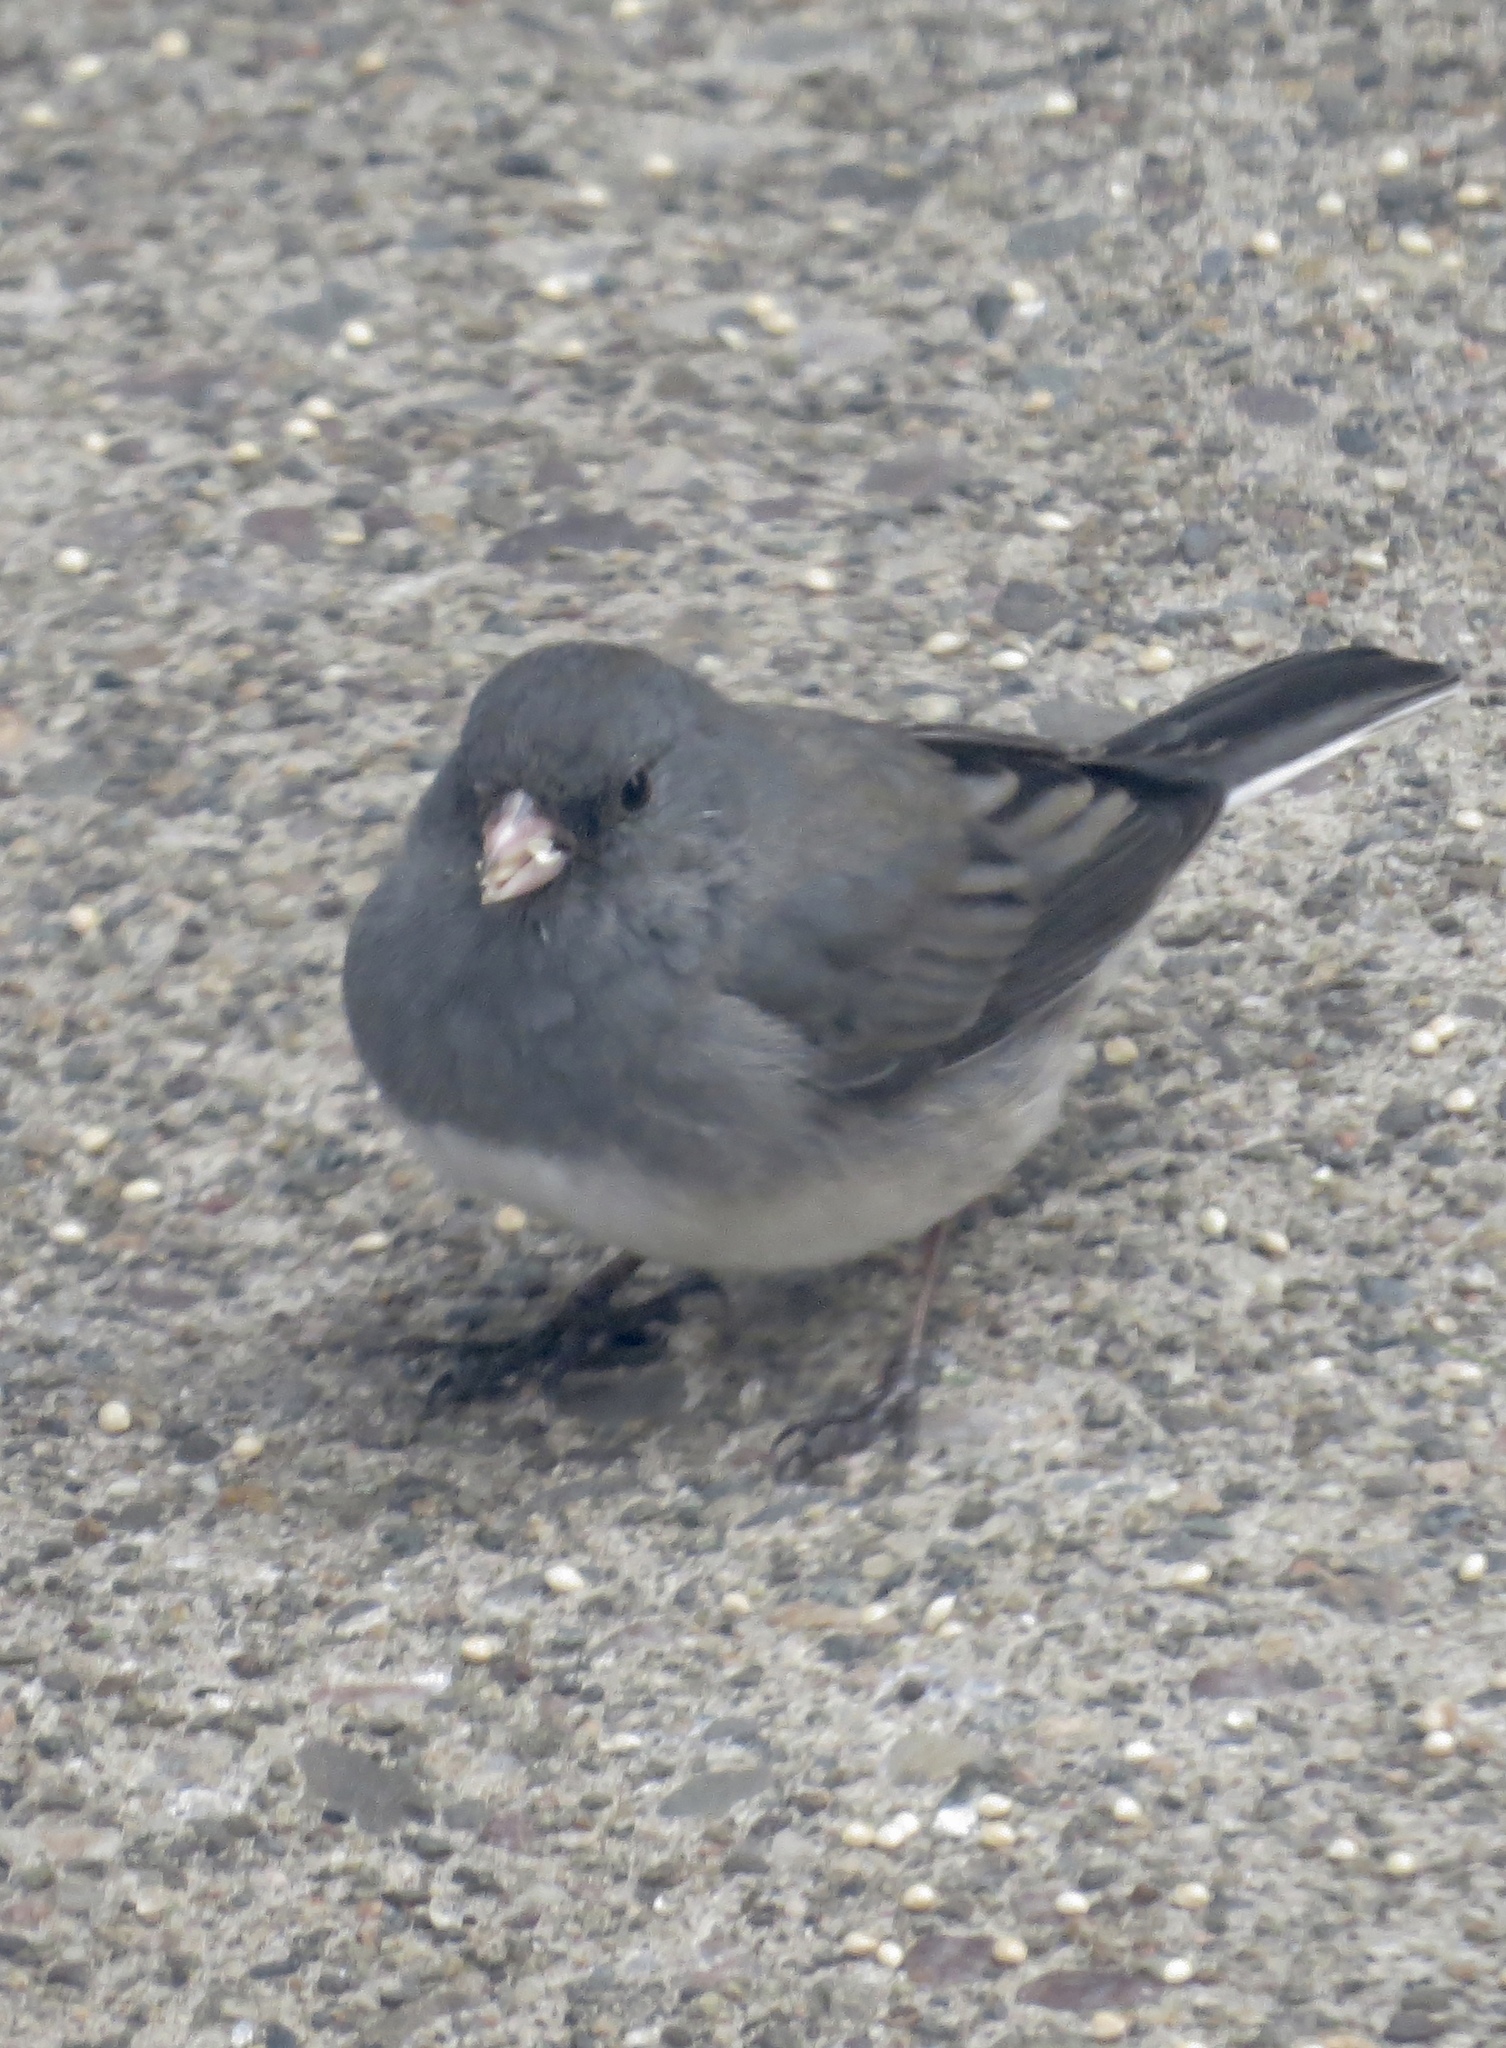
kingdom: Animalia
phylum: Chordata
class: Aves
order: Passeriformes
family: Passerellidae
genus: Junco
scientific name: Junco hyemalis
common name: Dark-eyed junco
